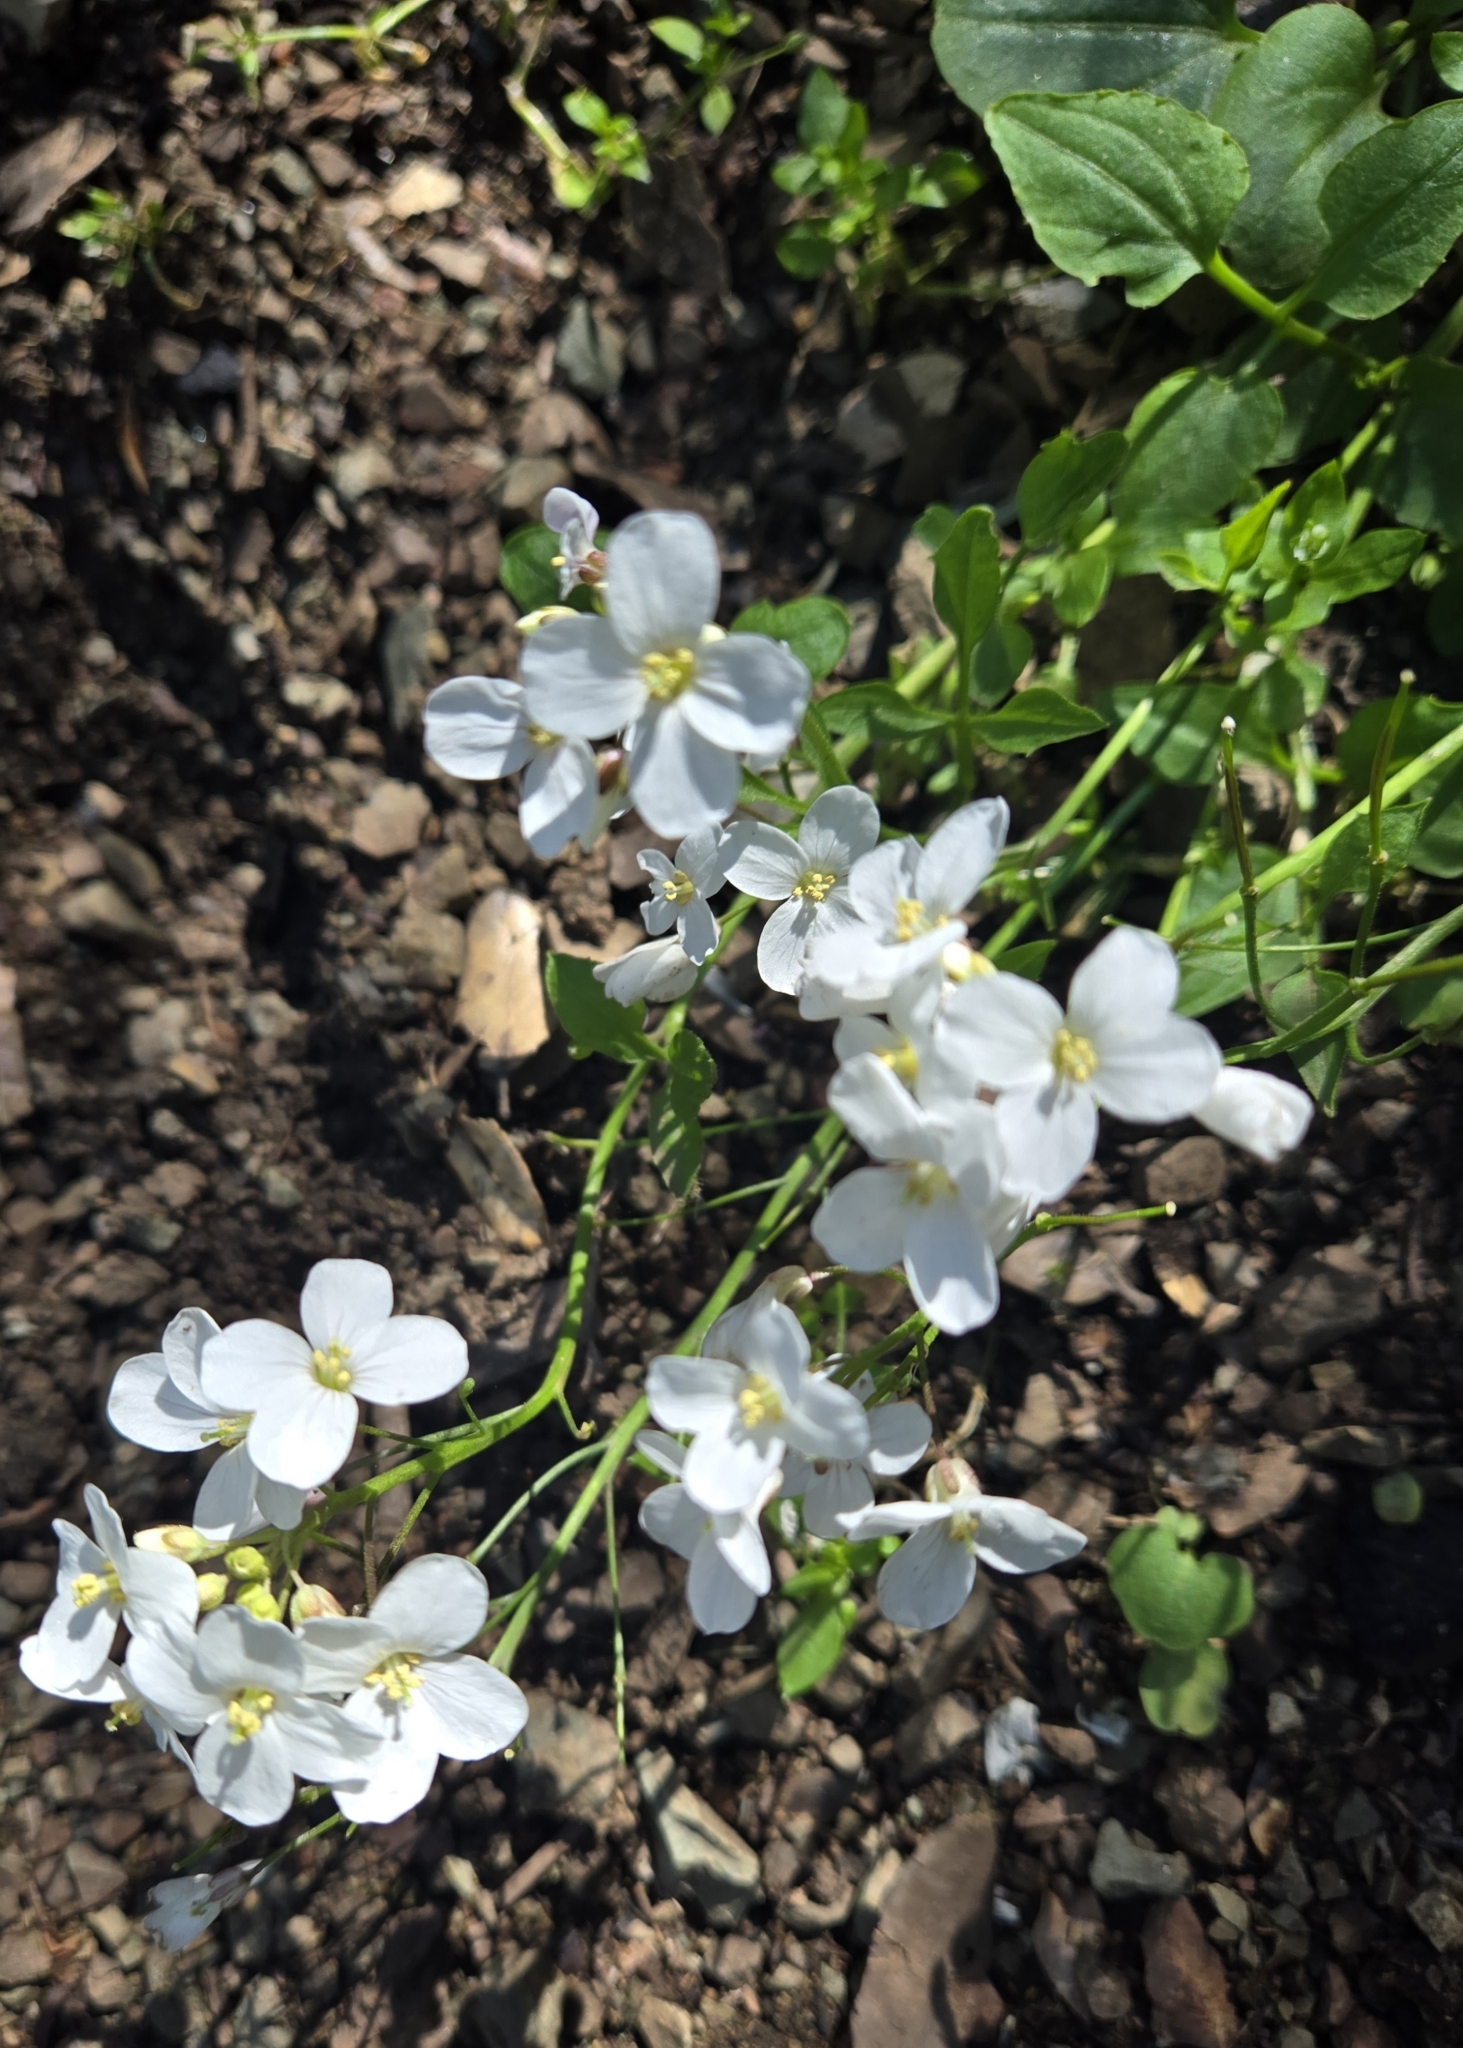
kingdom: Plantae
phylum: Tracheophyta
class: Magnoliopsida
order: Brassicales
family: Brassicaceae
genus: Cardamine
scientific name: Cardamine californica
